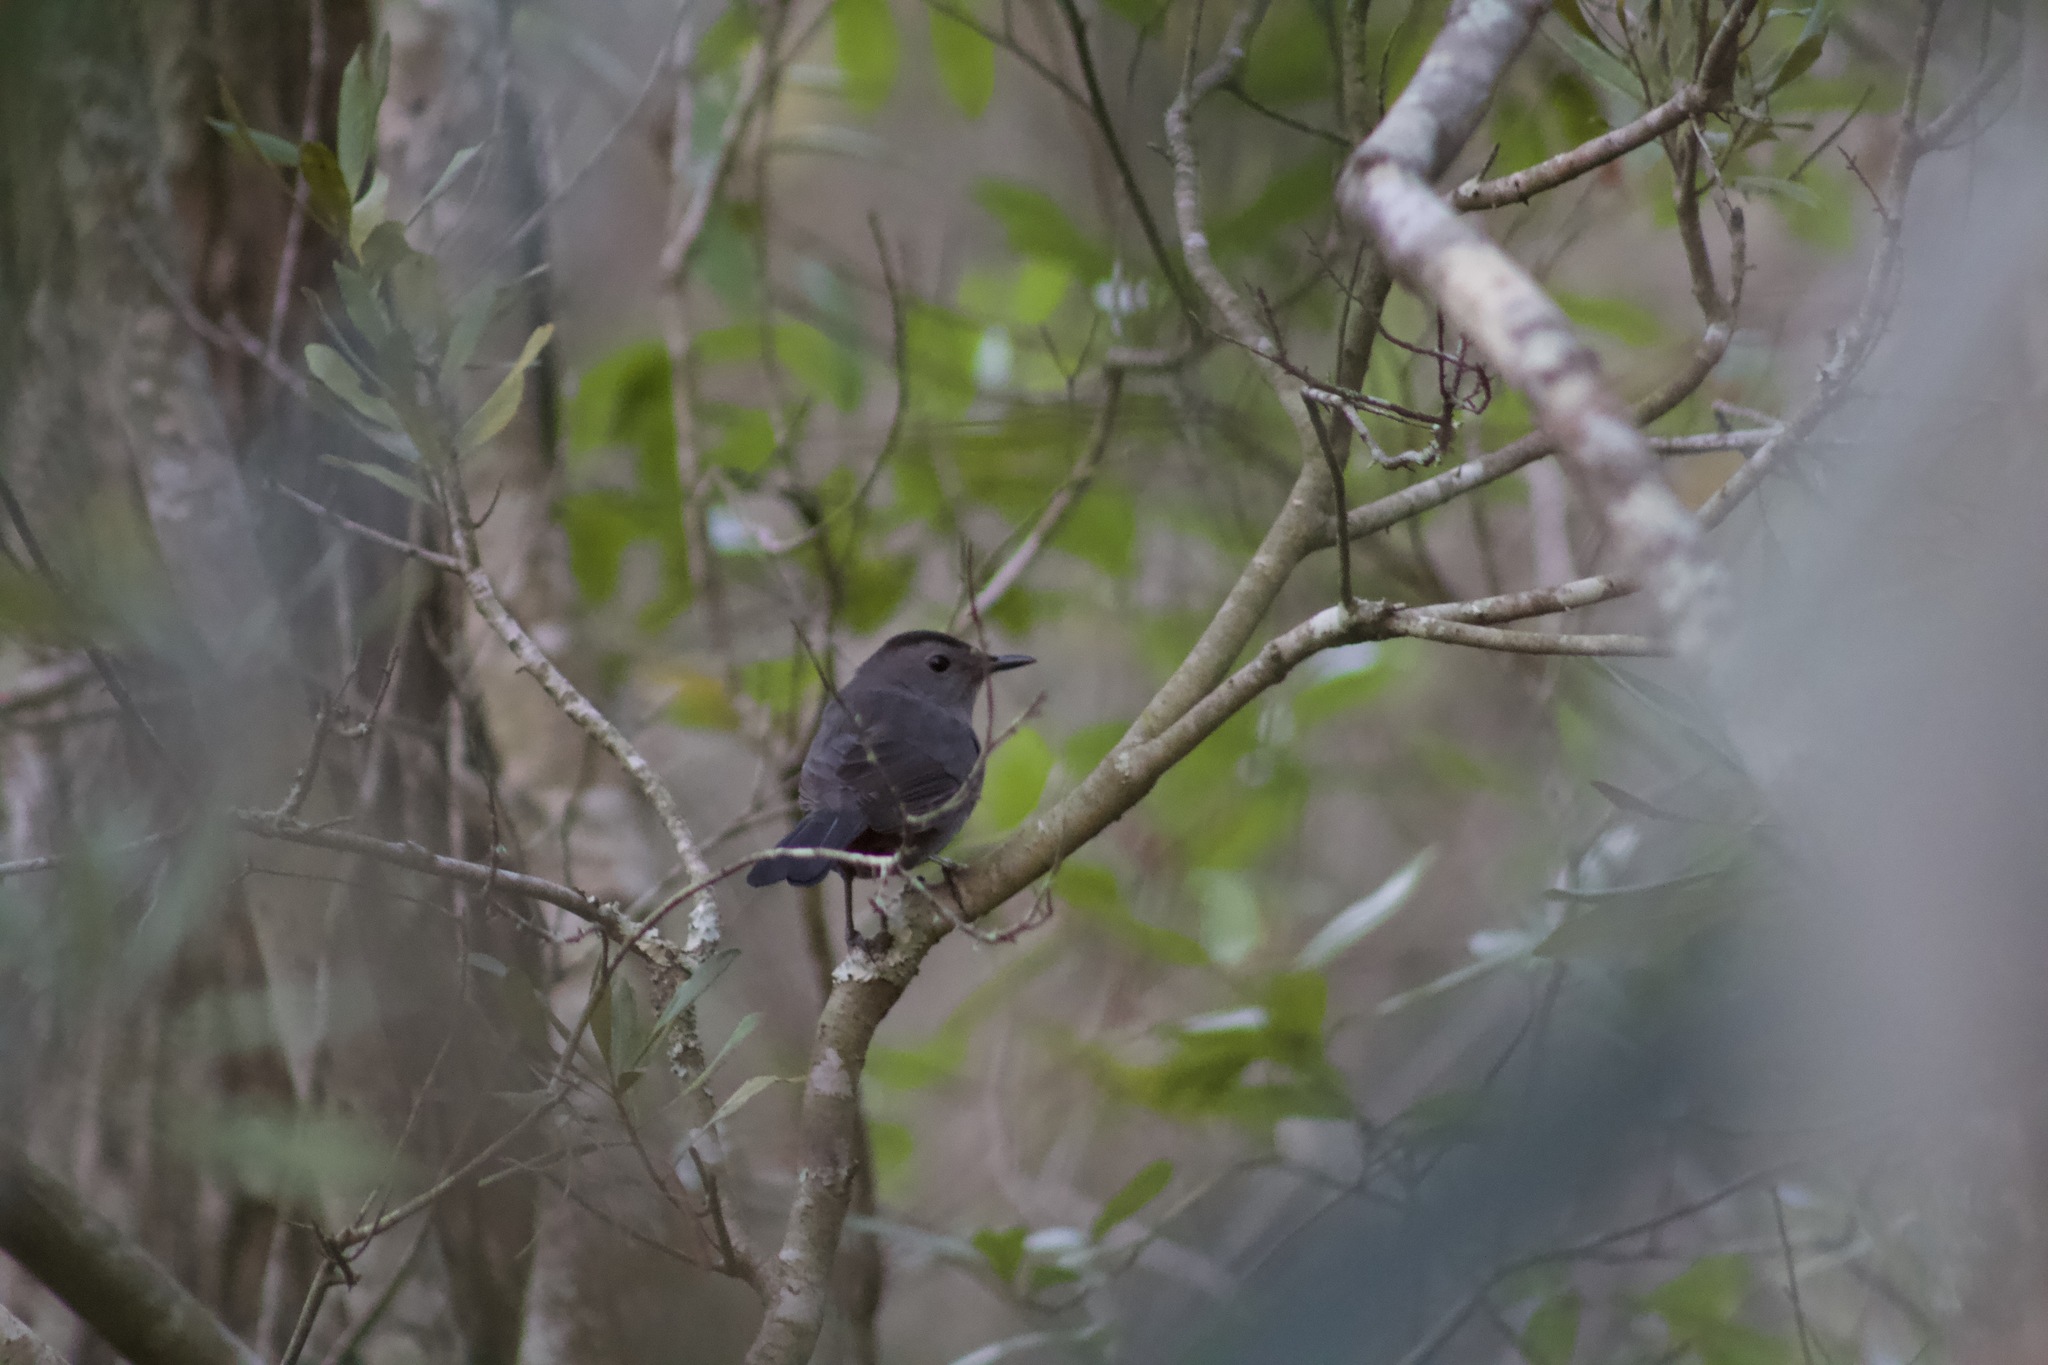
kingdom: Animalia
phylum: Chordata
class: Aves
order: Passeriformes
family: Mimidae
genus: Dumetella
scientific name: Dumetella carolinensis
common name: Gray catbird
